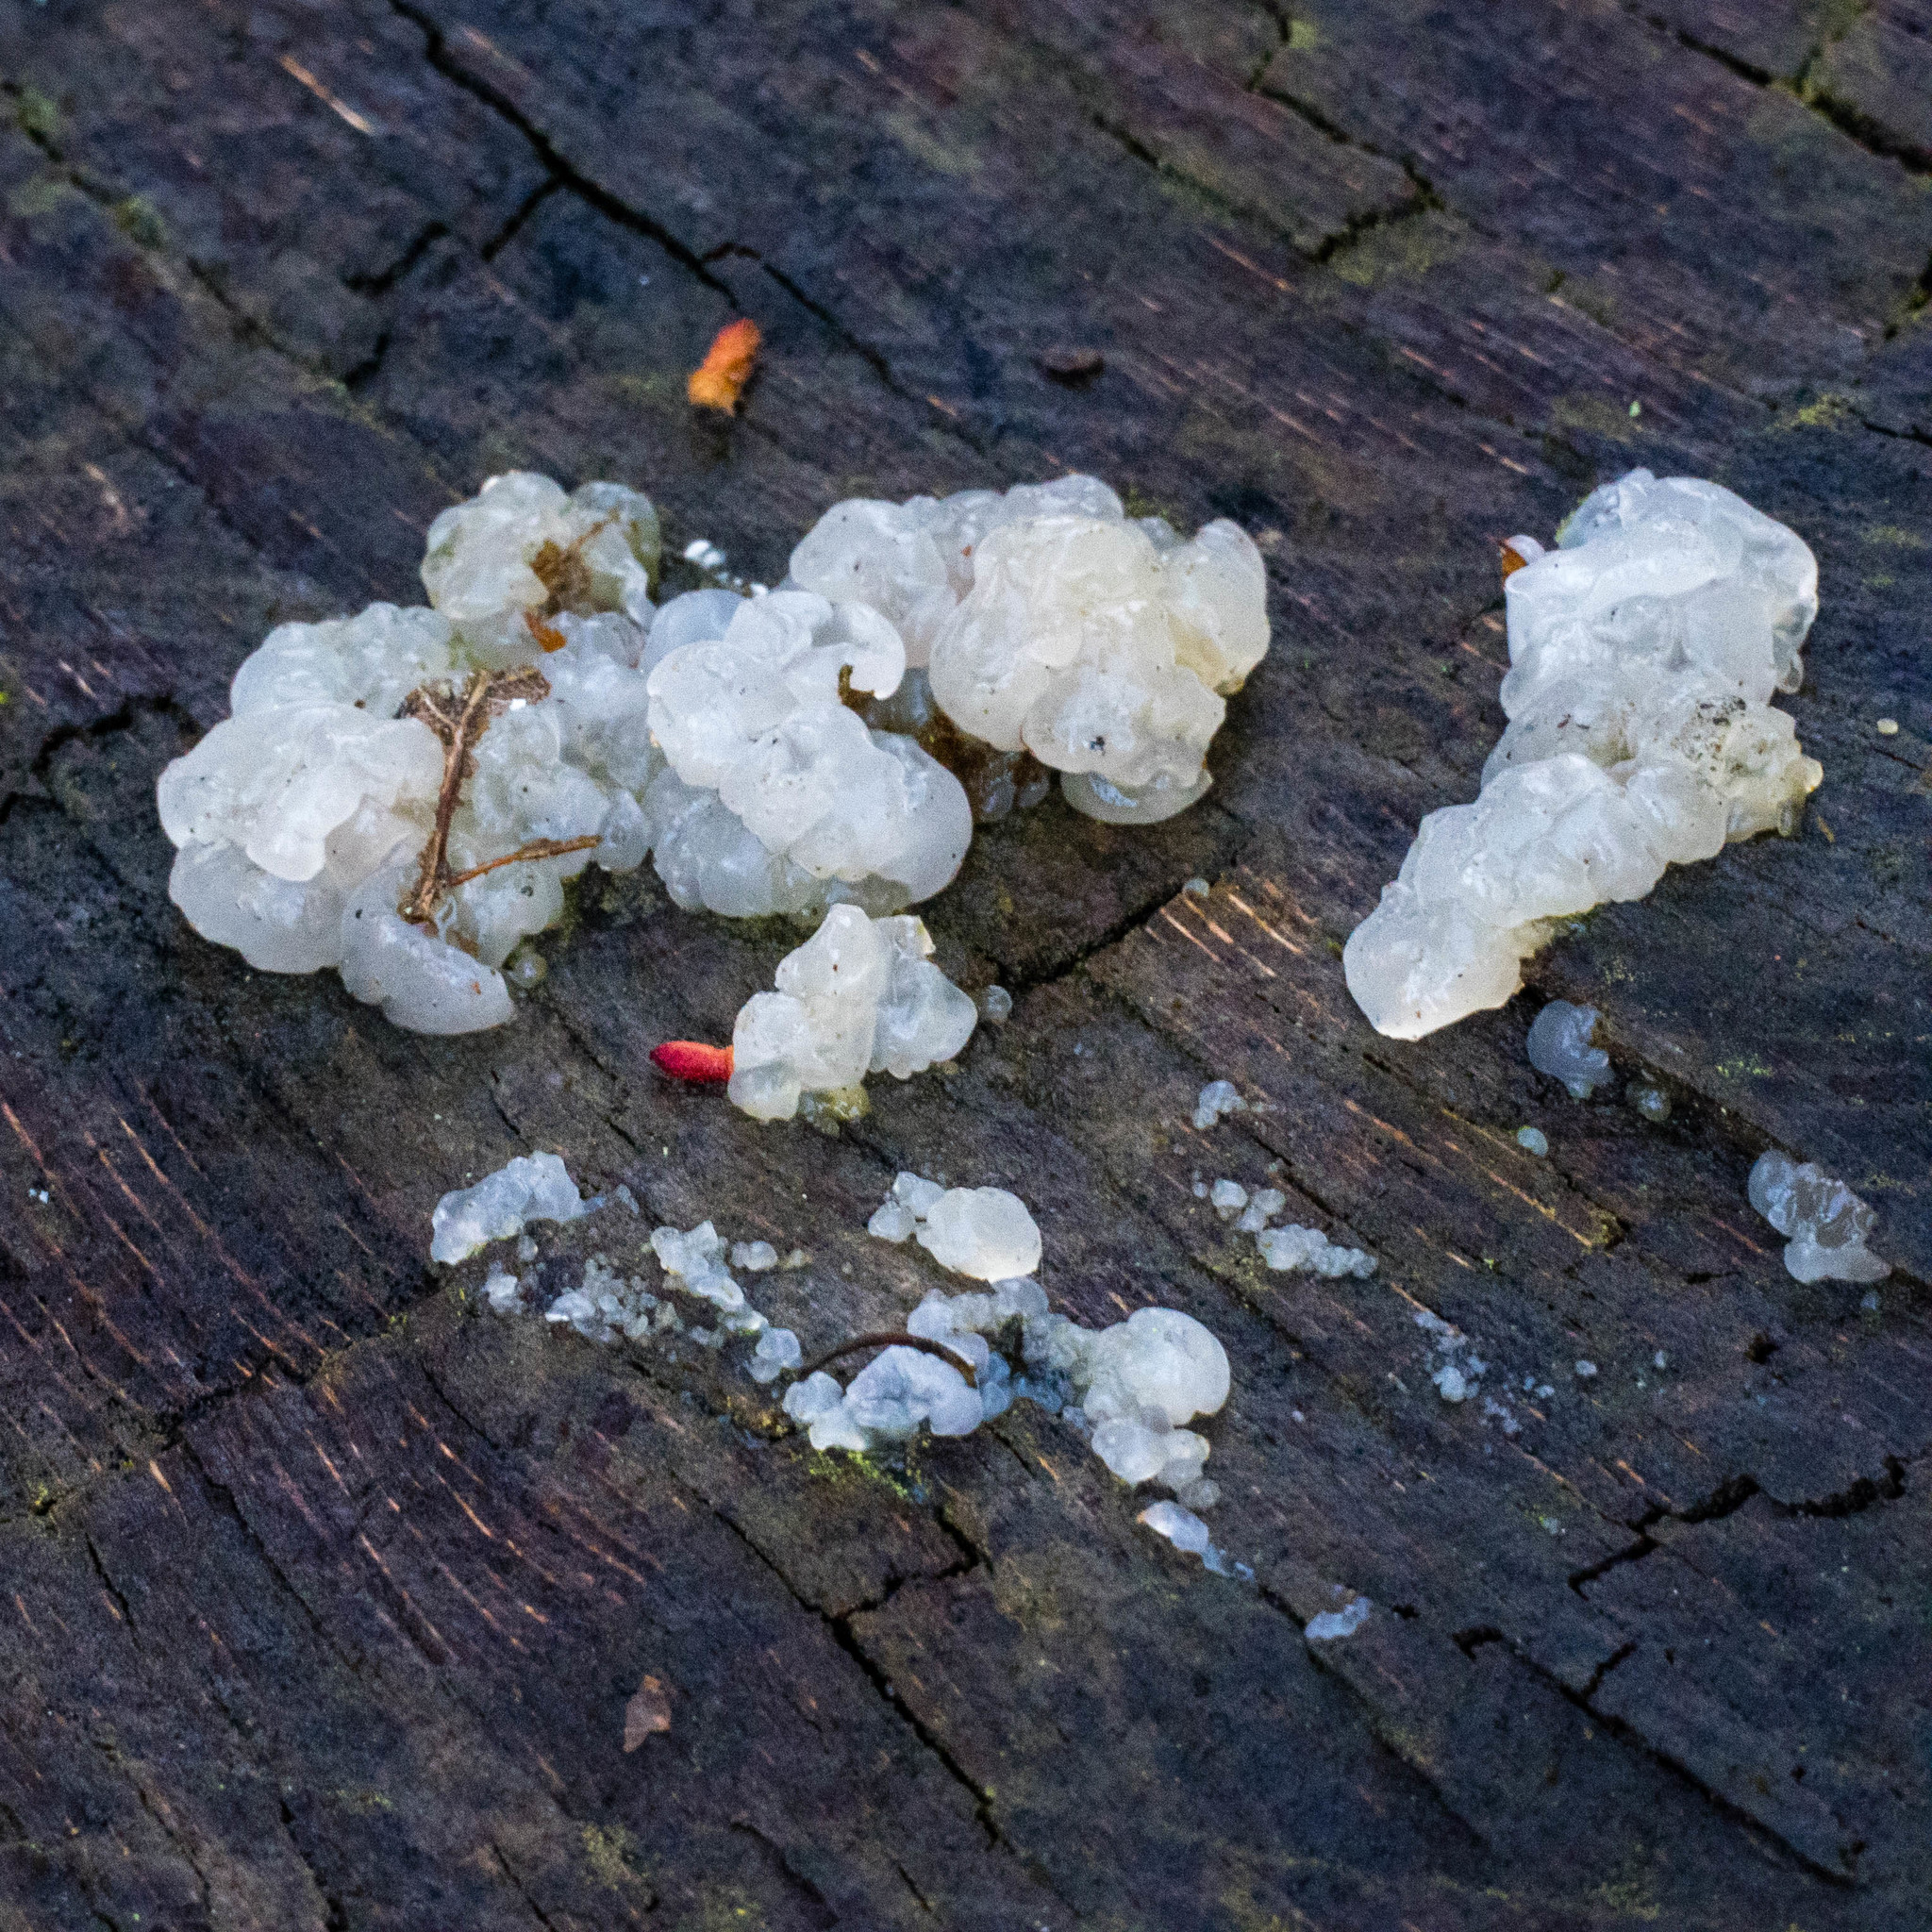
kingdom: Fungi
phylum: Basidiomycota
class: Agaricomycetes
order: Auriculariales
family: Hyaloriaceae
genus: Myxarium
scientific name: Myxarium nucleatum
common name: Crystal brain fungus
